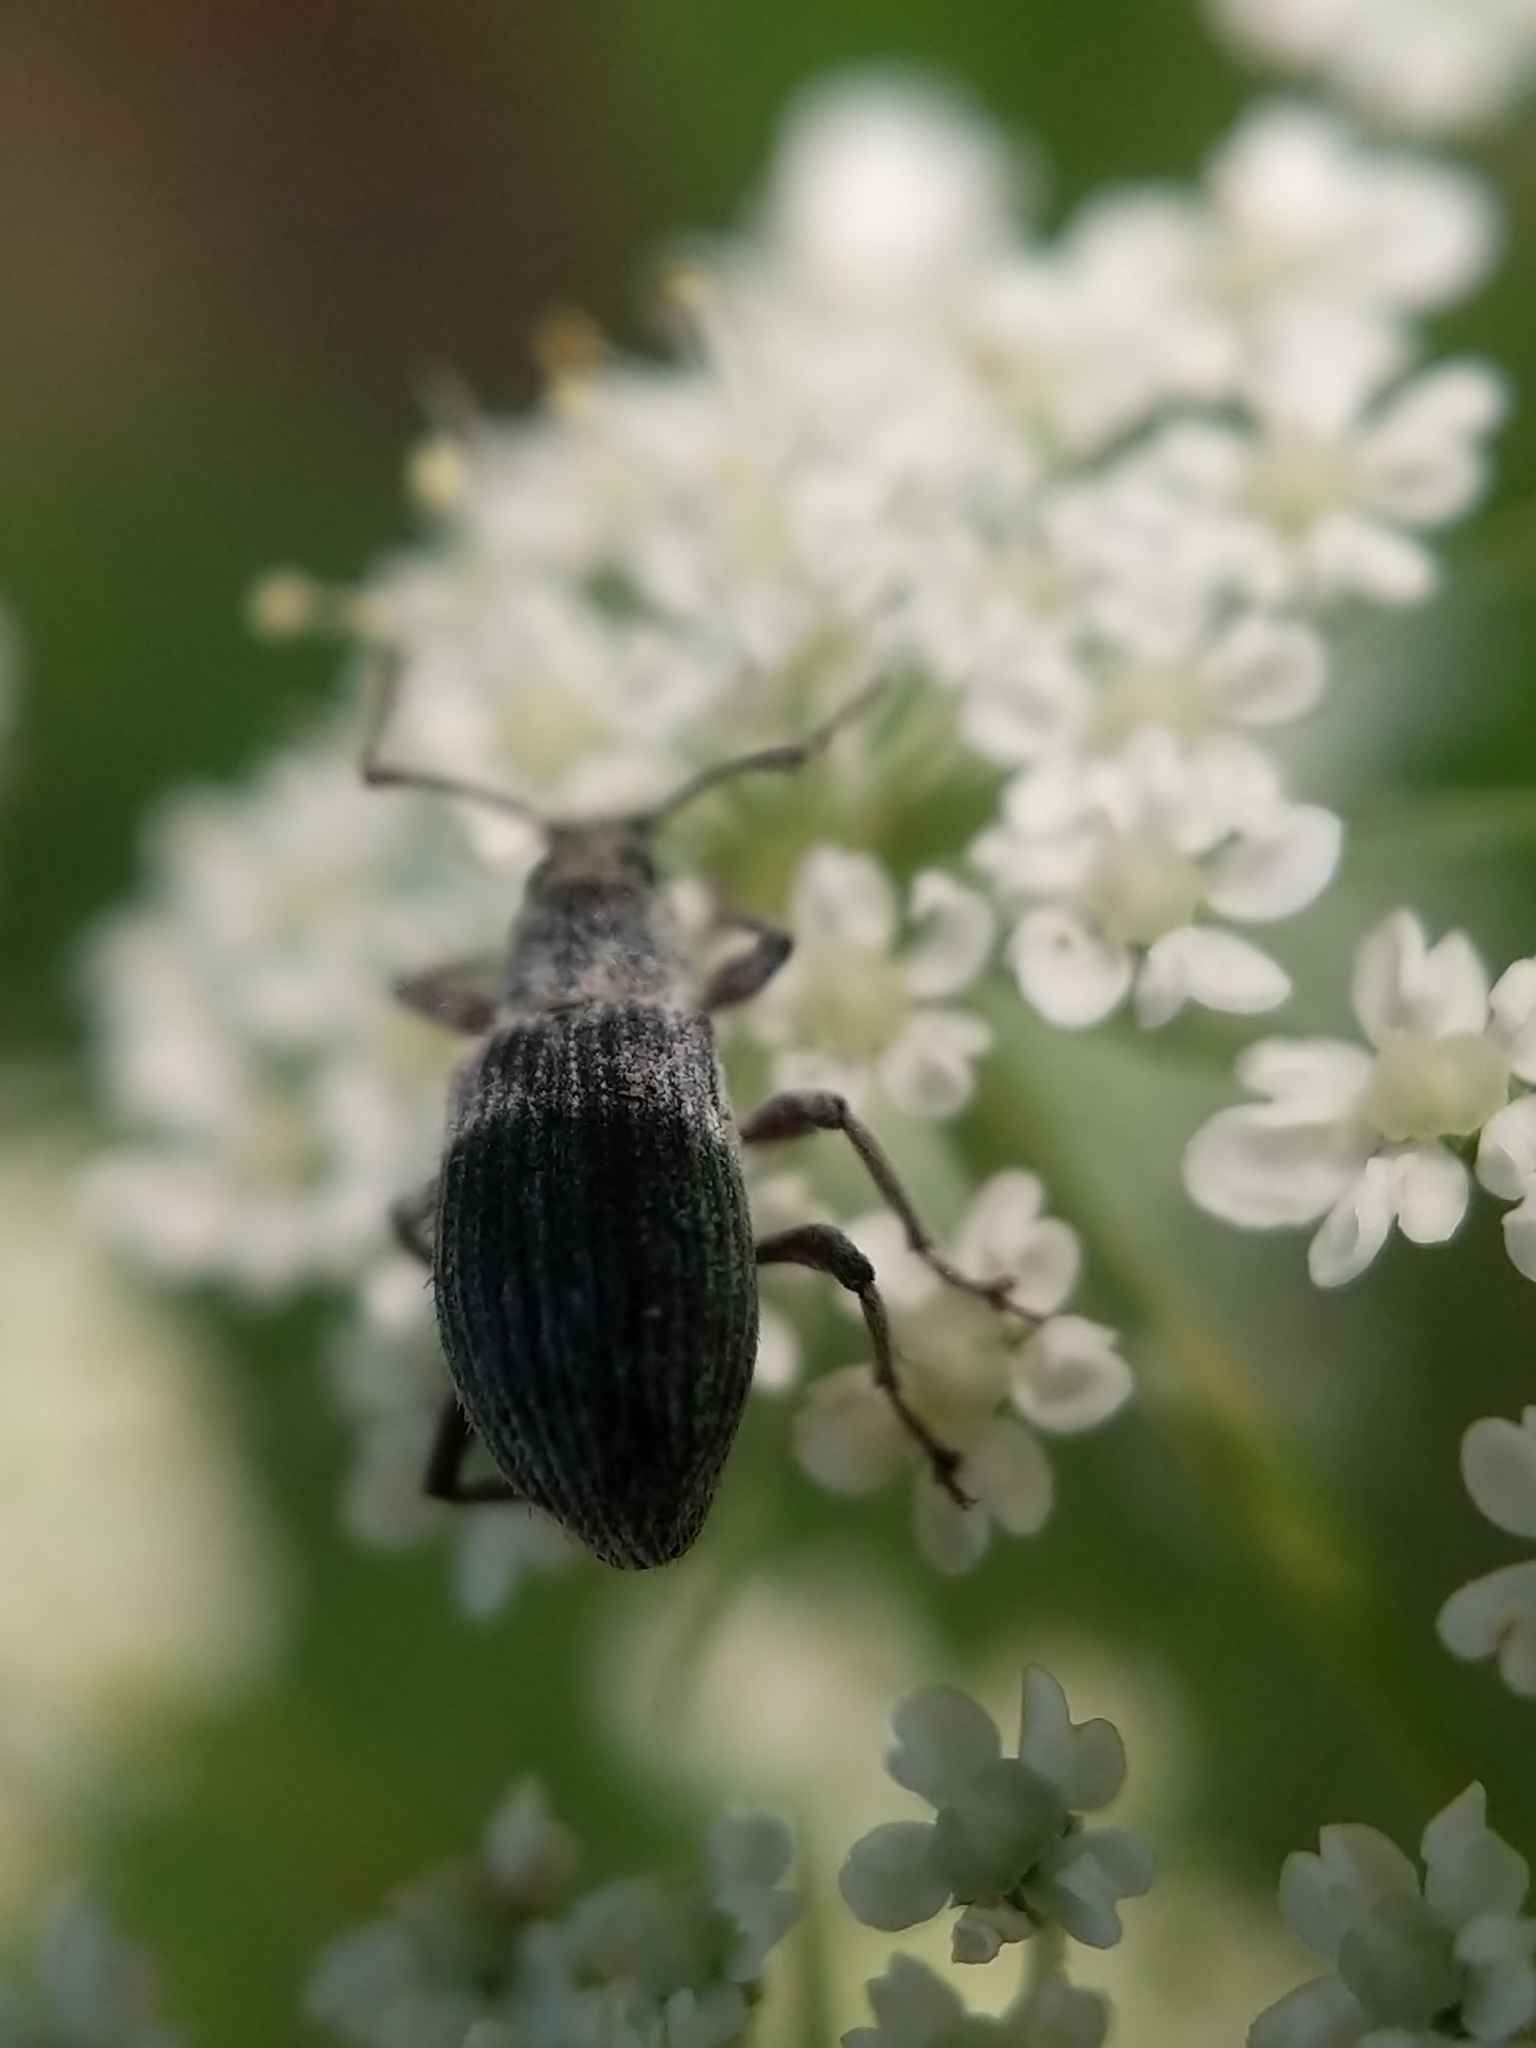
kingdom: Animalia
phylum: Arthropoda
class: Insecta
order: Coleoptera
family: Curculionidae
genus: Cyrtepistomus
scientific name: Cyrtepistomus castaneus
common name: Weevil
